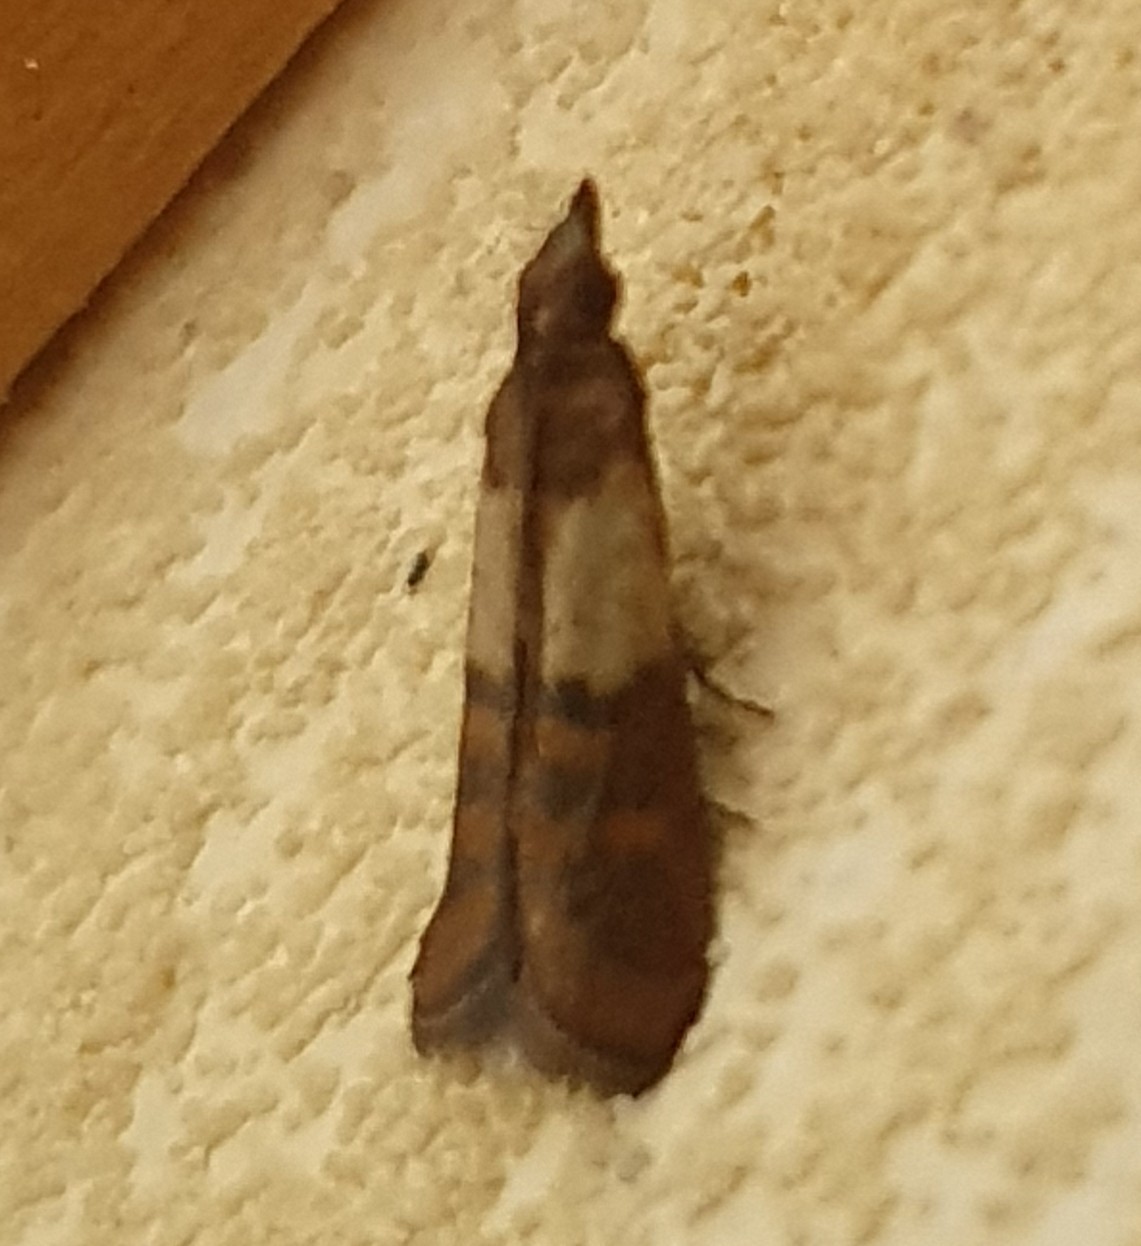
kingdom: Animalia
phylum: Arthropoda
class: Insecta
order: Lepidoptera
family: Pyralidae
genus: Plodia
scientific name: Plodia interpunctella
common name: Indian meal moth
